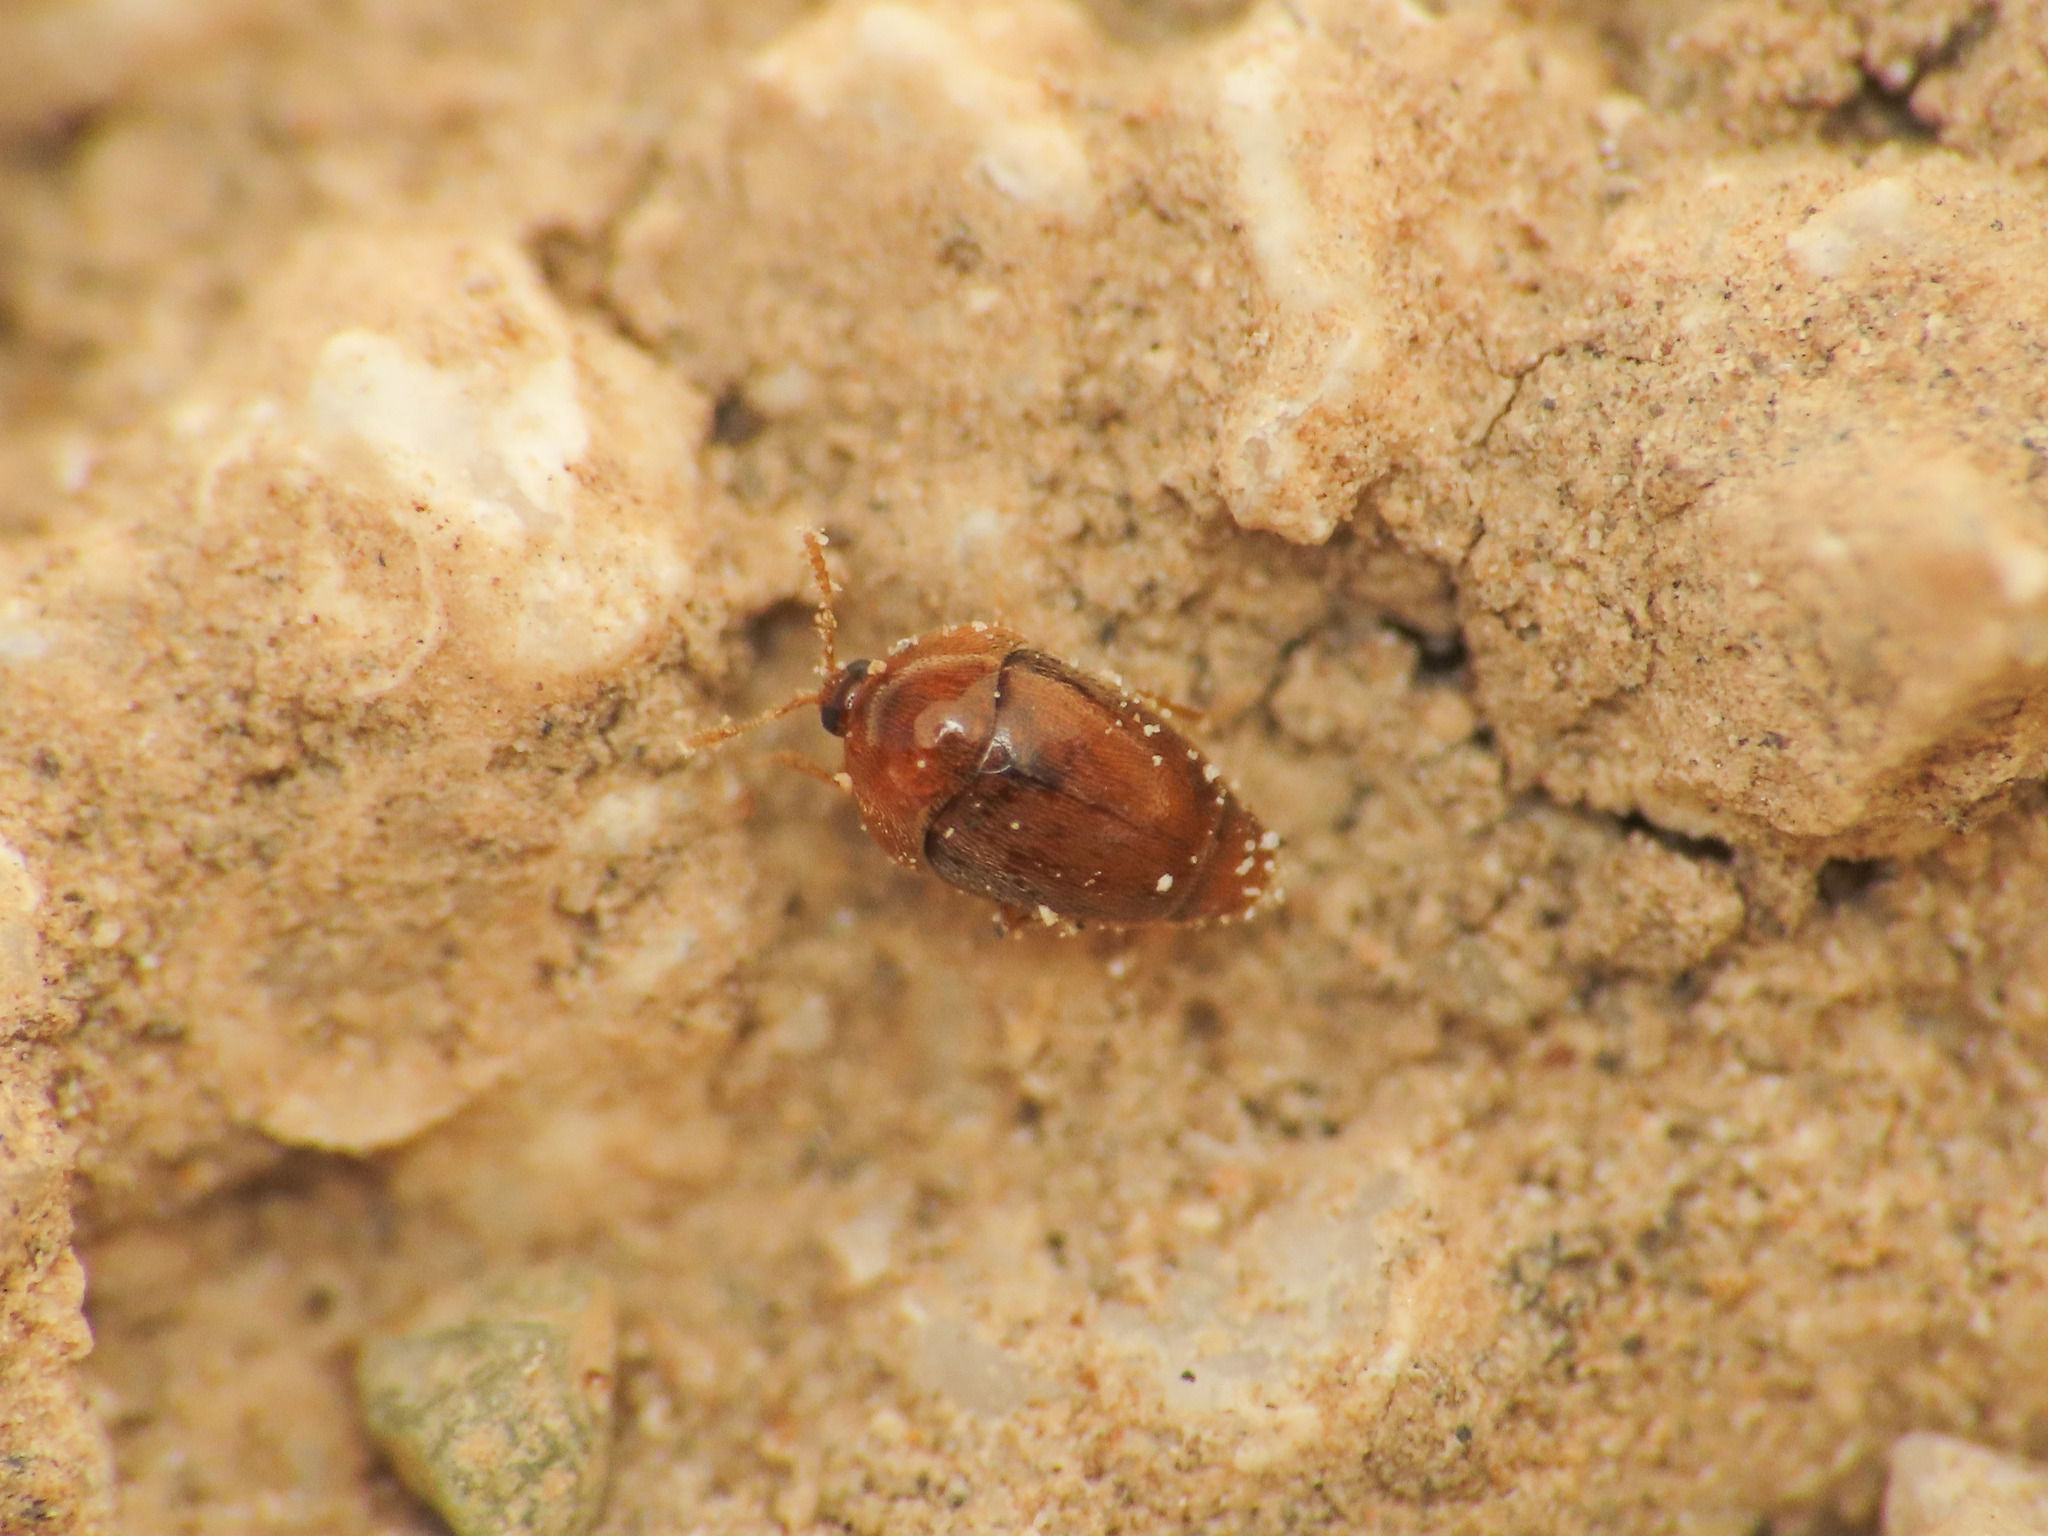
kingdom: Animalia
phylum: Arthropoda
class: Insecta
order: Coleoptera
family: Corylophidae
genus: Sericoderus
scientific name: Sericoderus lateralis
